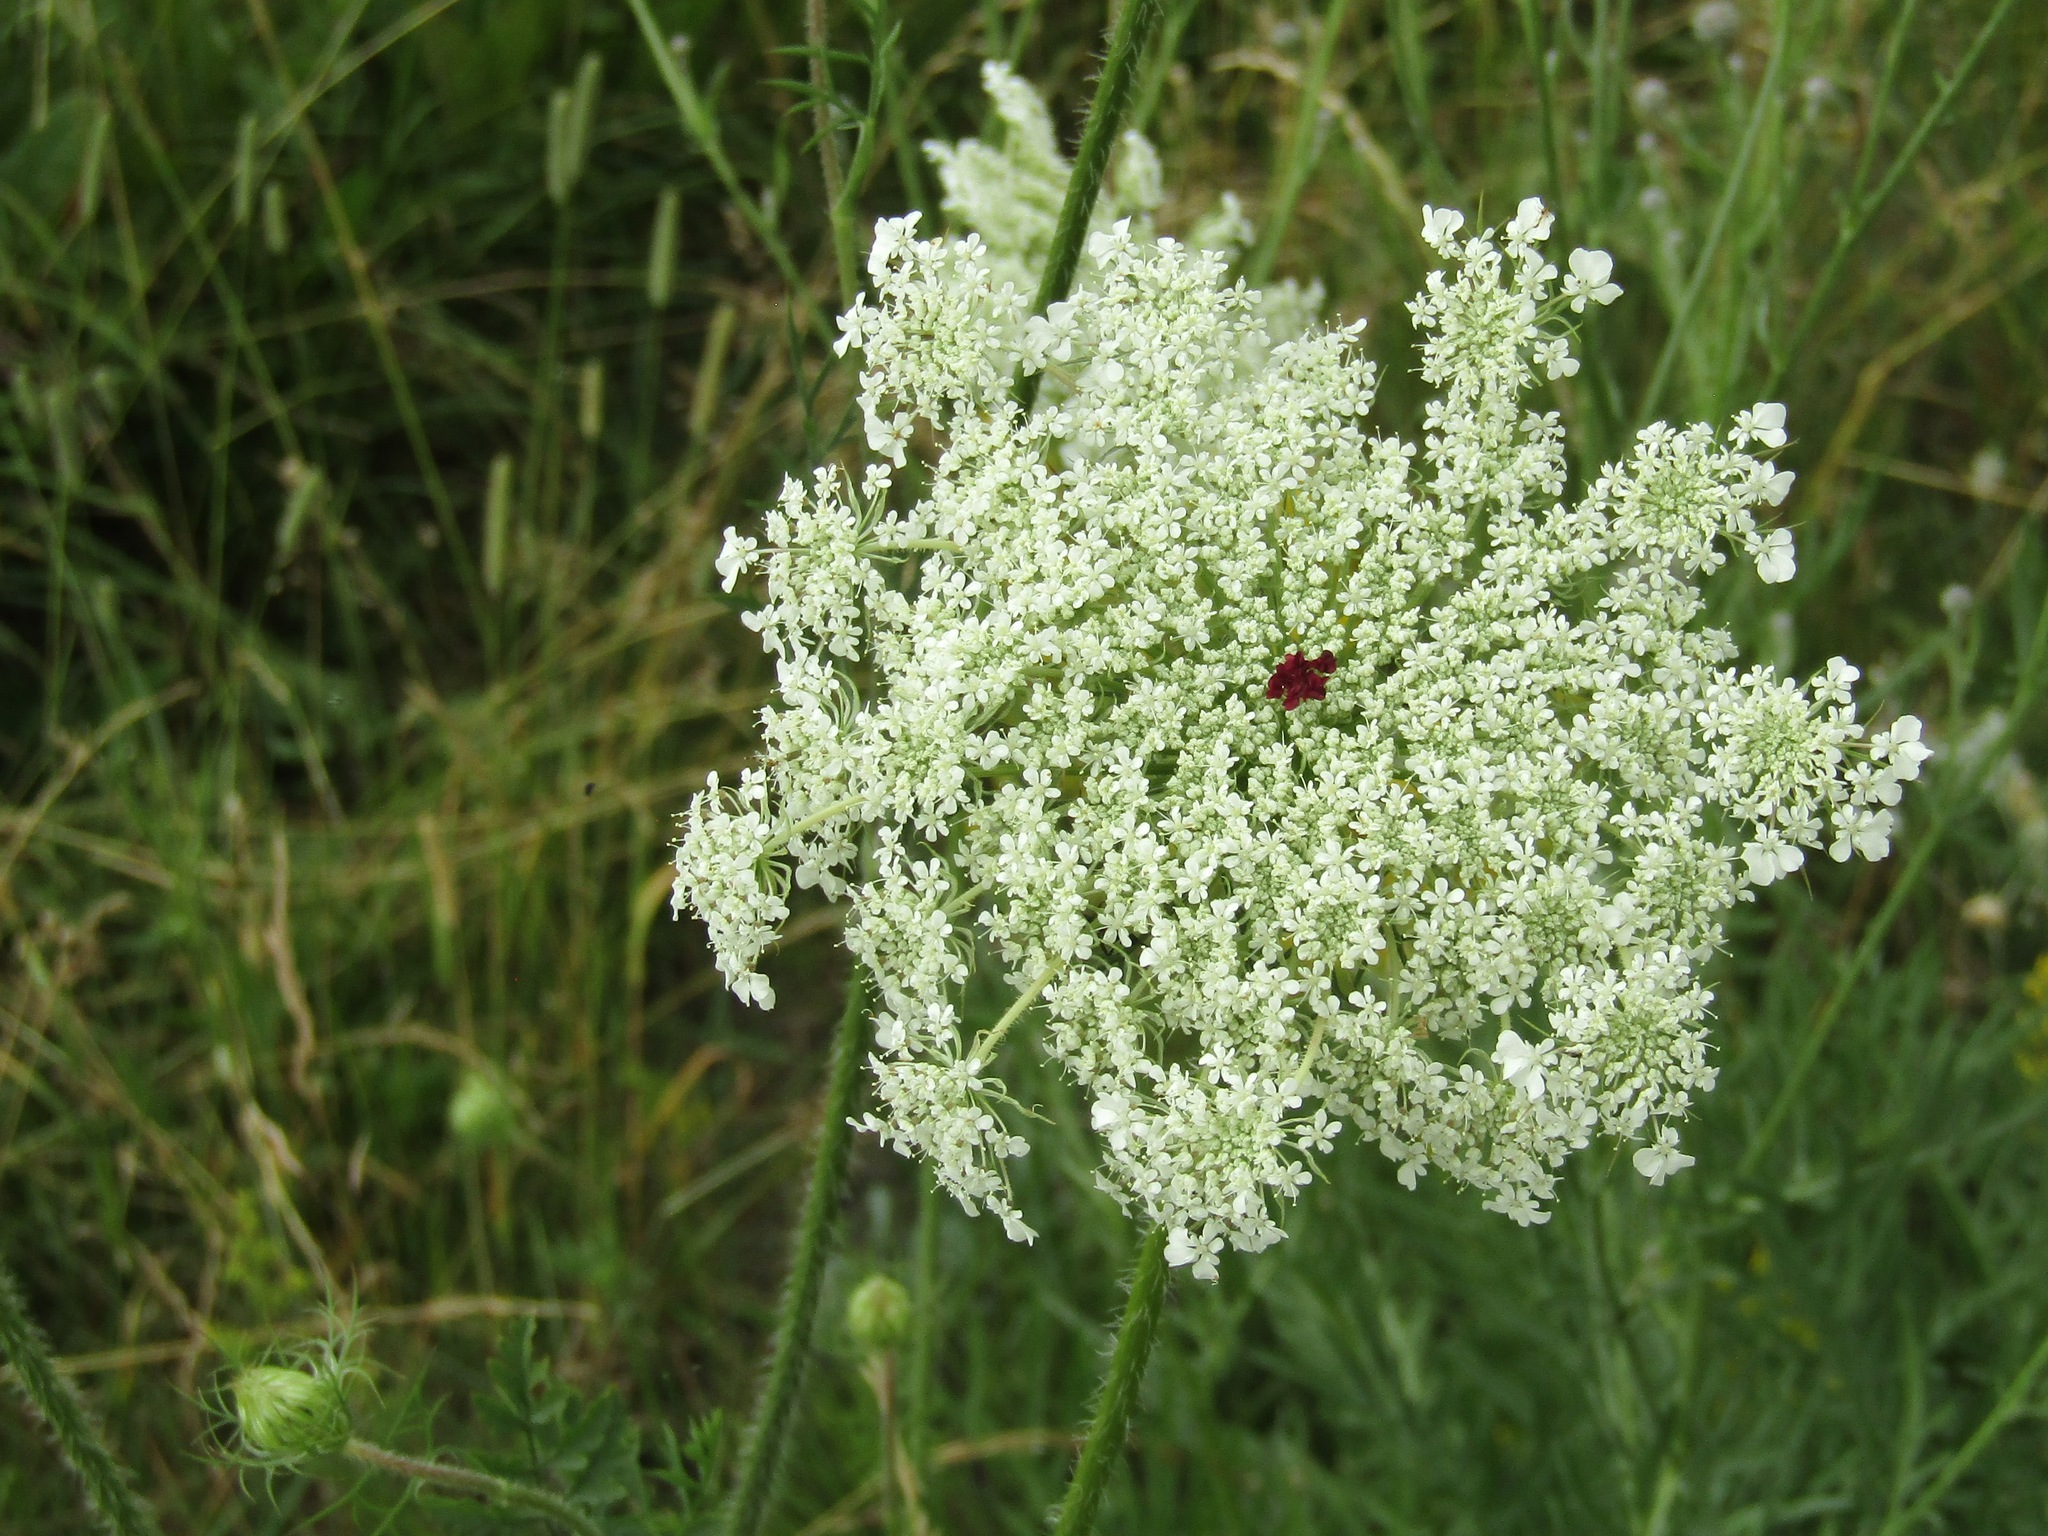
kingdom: Plantae
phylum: Tracheophyta
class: Magnoliopsida
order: Apiales
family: Apiaceae
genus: Daucus
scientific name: Daucus carota
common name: Wild carrot
